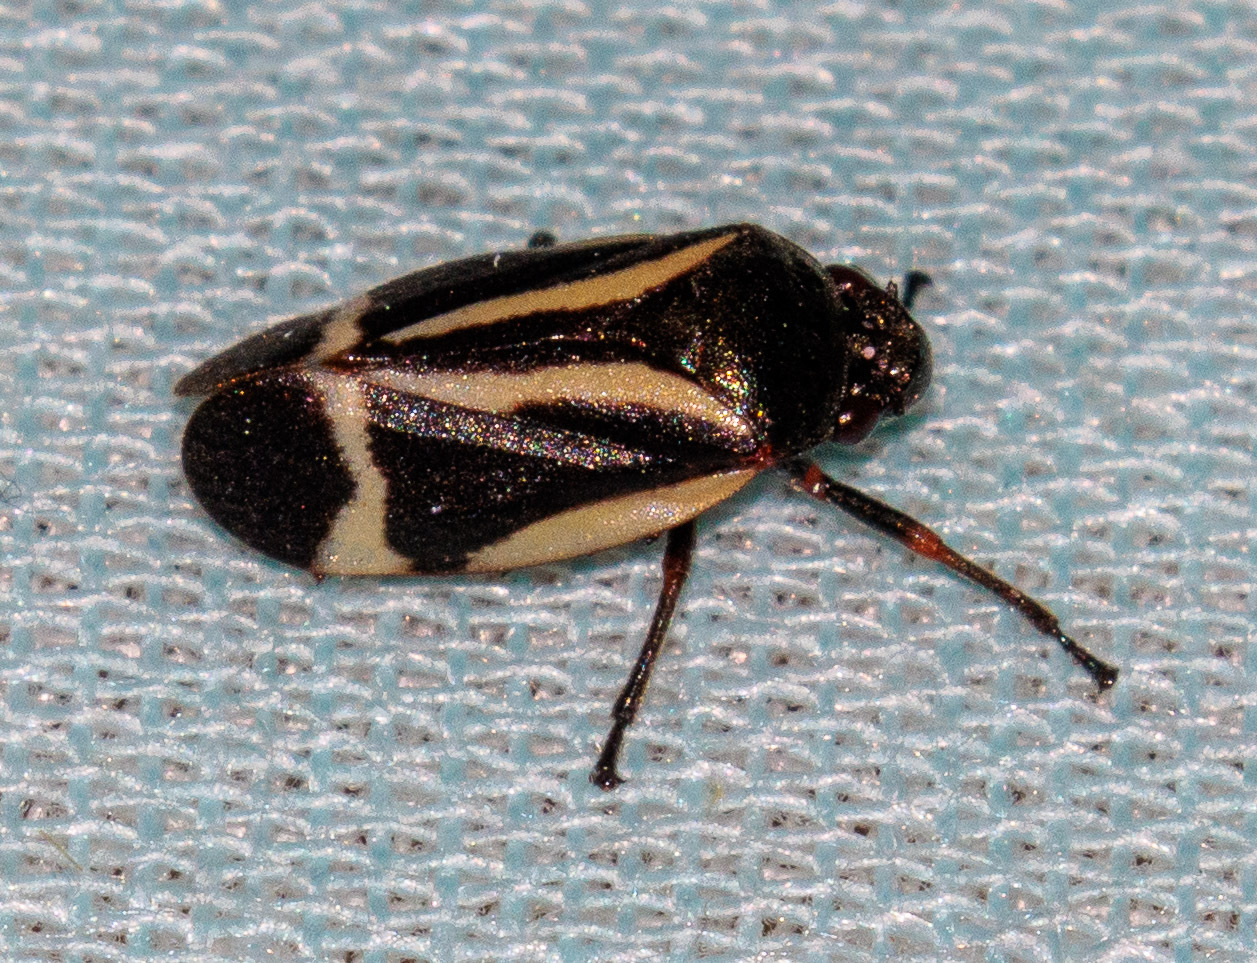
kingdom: Animalia
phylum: Arthropoda
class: Insecta
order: Hemiptera
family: Cercopidae
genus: Notozulia
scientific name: Notozulia entreriana
